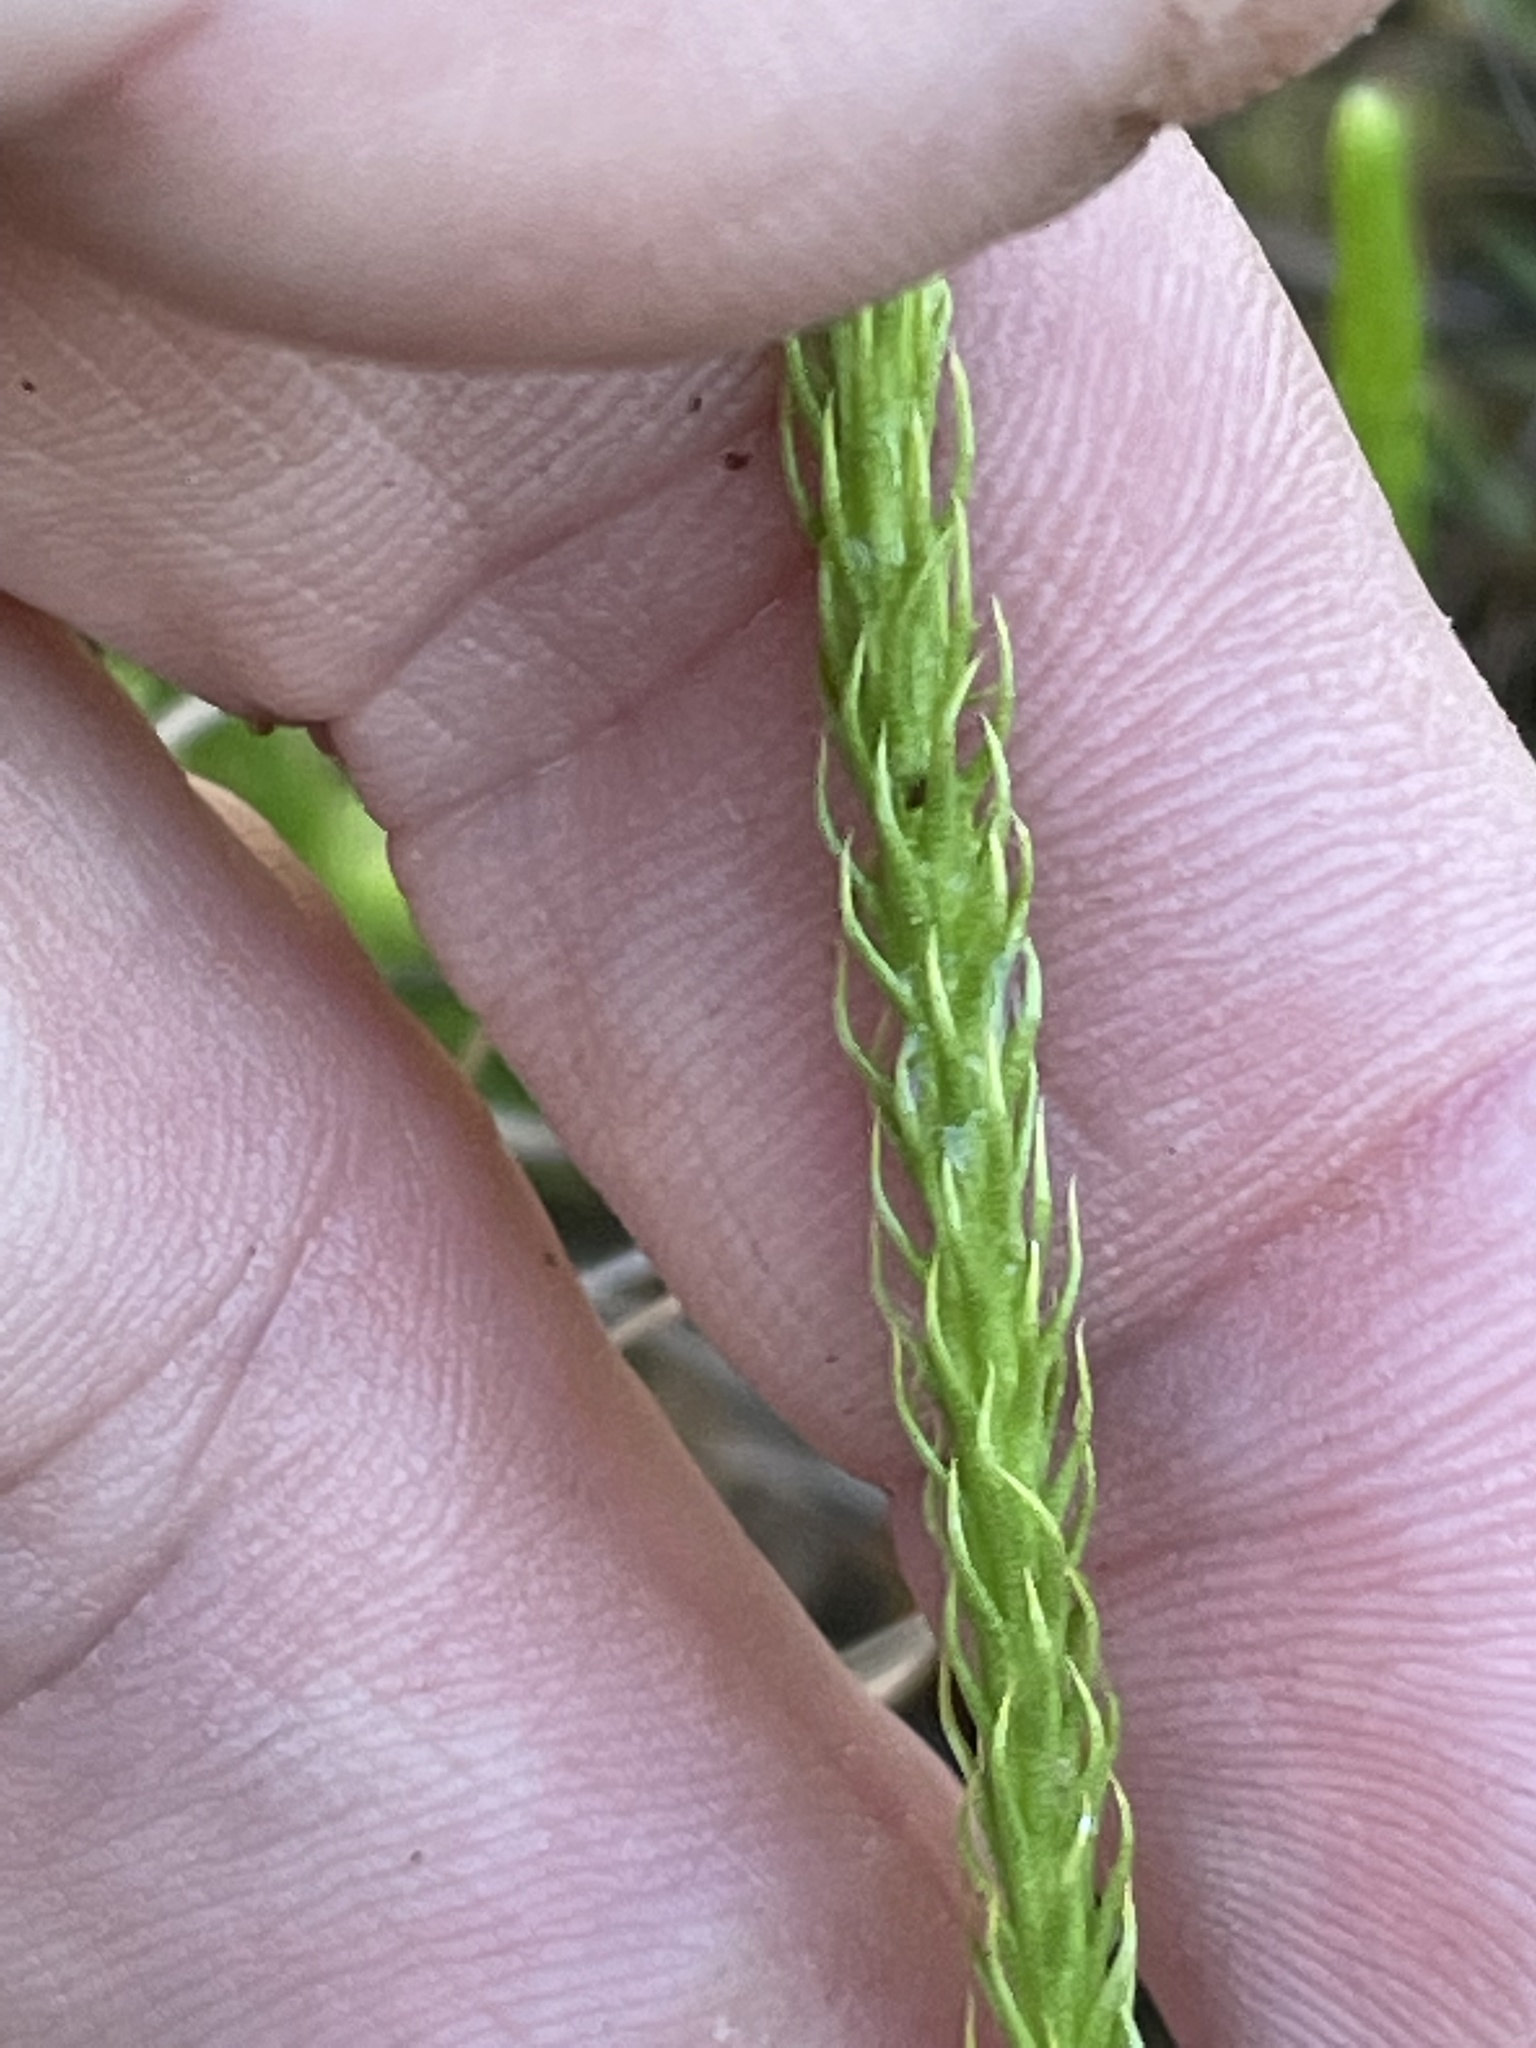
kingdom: Plantae
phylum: Tracheophyta
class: Lycopodiopsida
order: Lycopodiales
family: Lycopodiaceae
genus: Lycopodiella
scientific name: Lycopodiella appressa
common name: Appressed bog clubmoss
